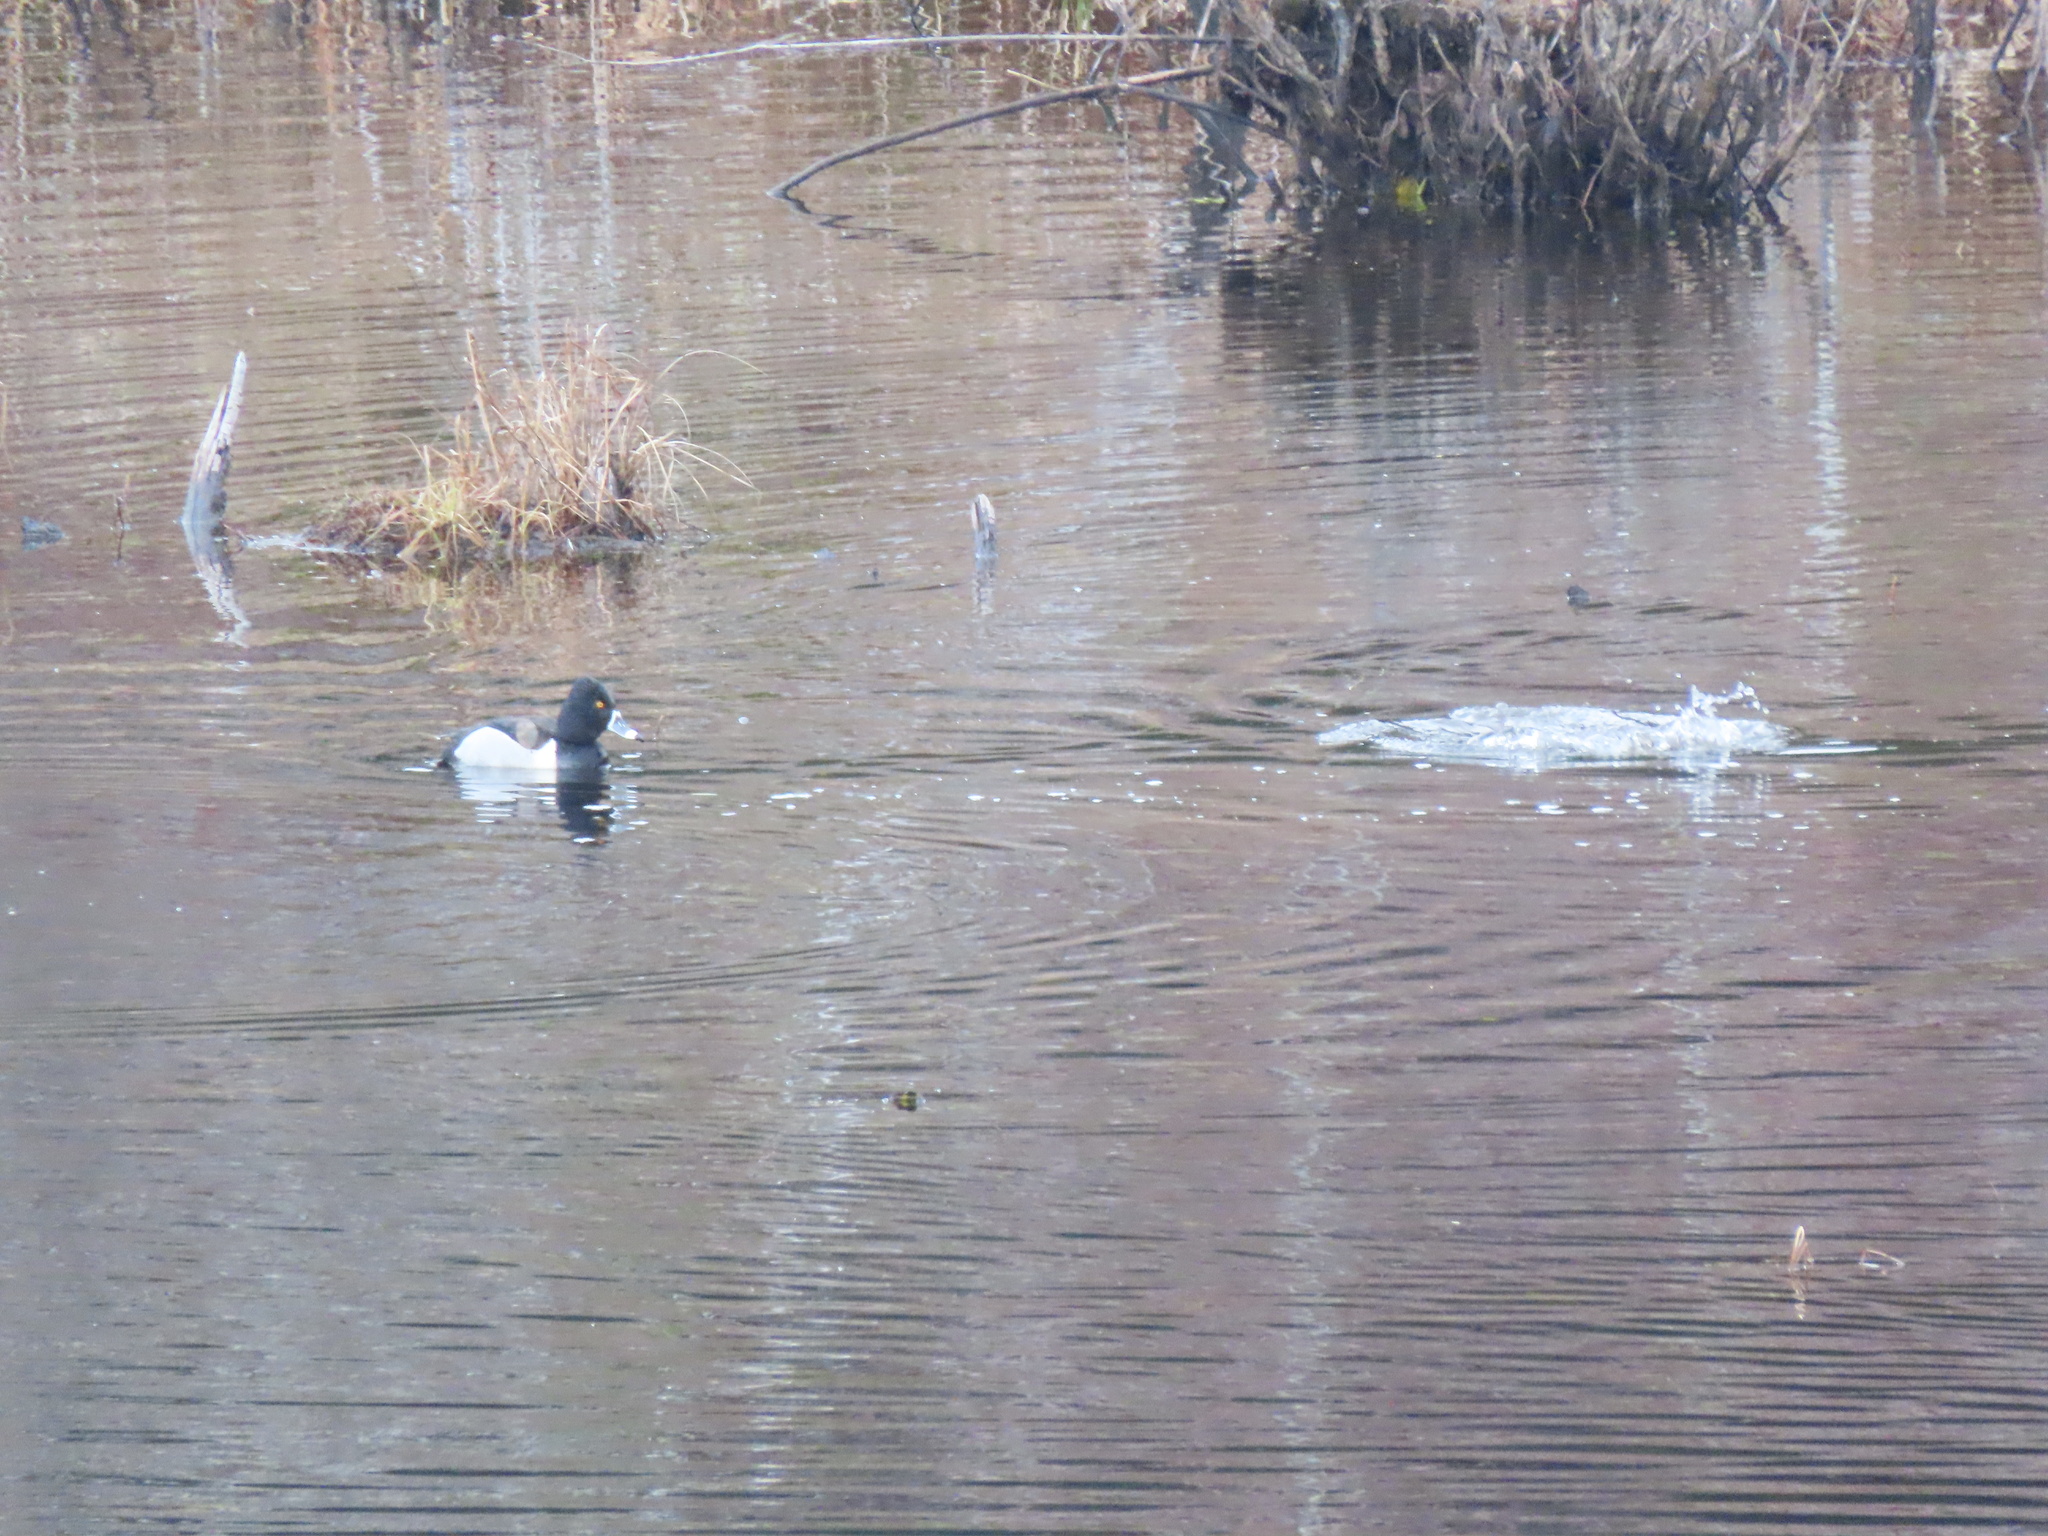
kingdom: Animalia
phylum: Chordata
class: Aves
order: Anseriformes
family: Anatidae
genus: Aythya
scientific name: Aythya collaris
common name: Ring-necked duck
